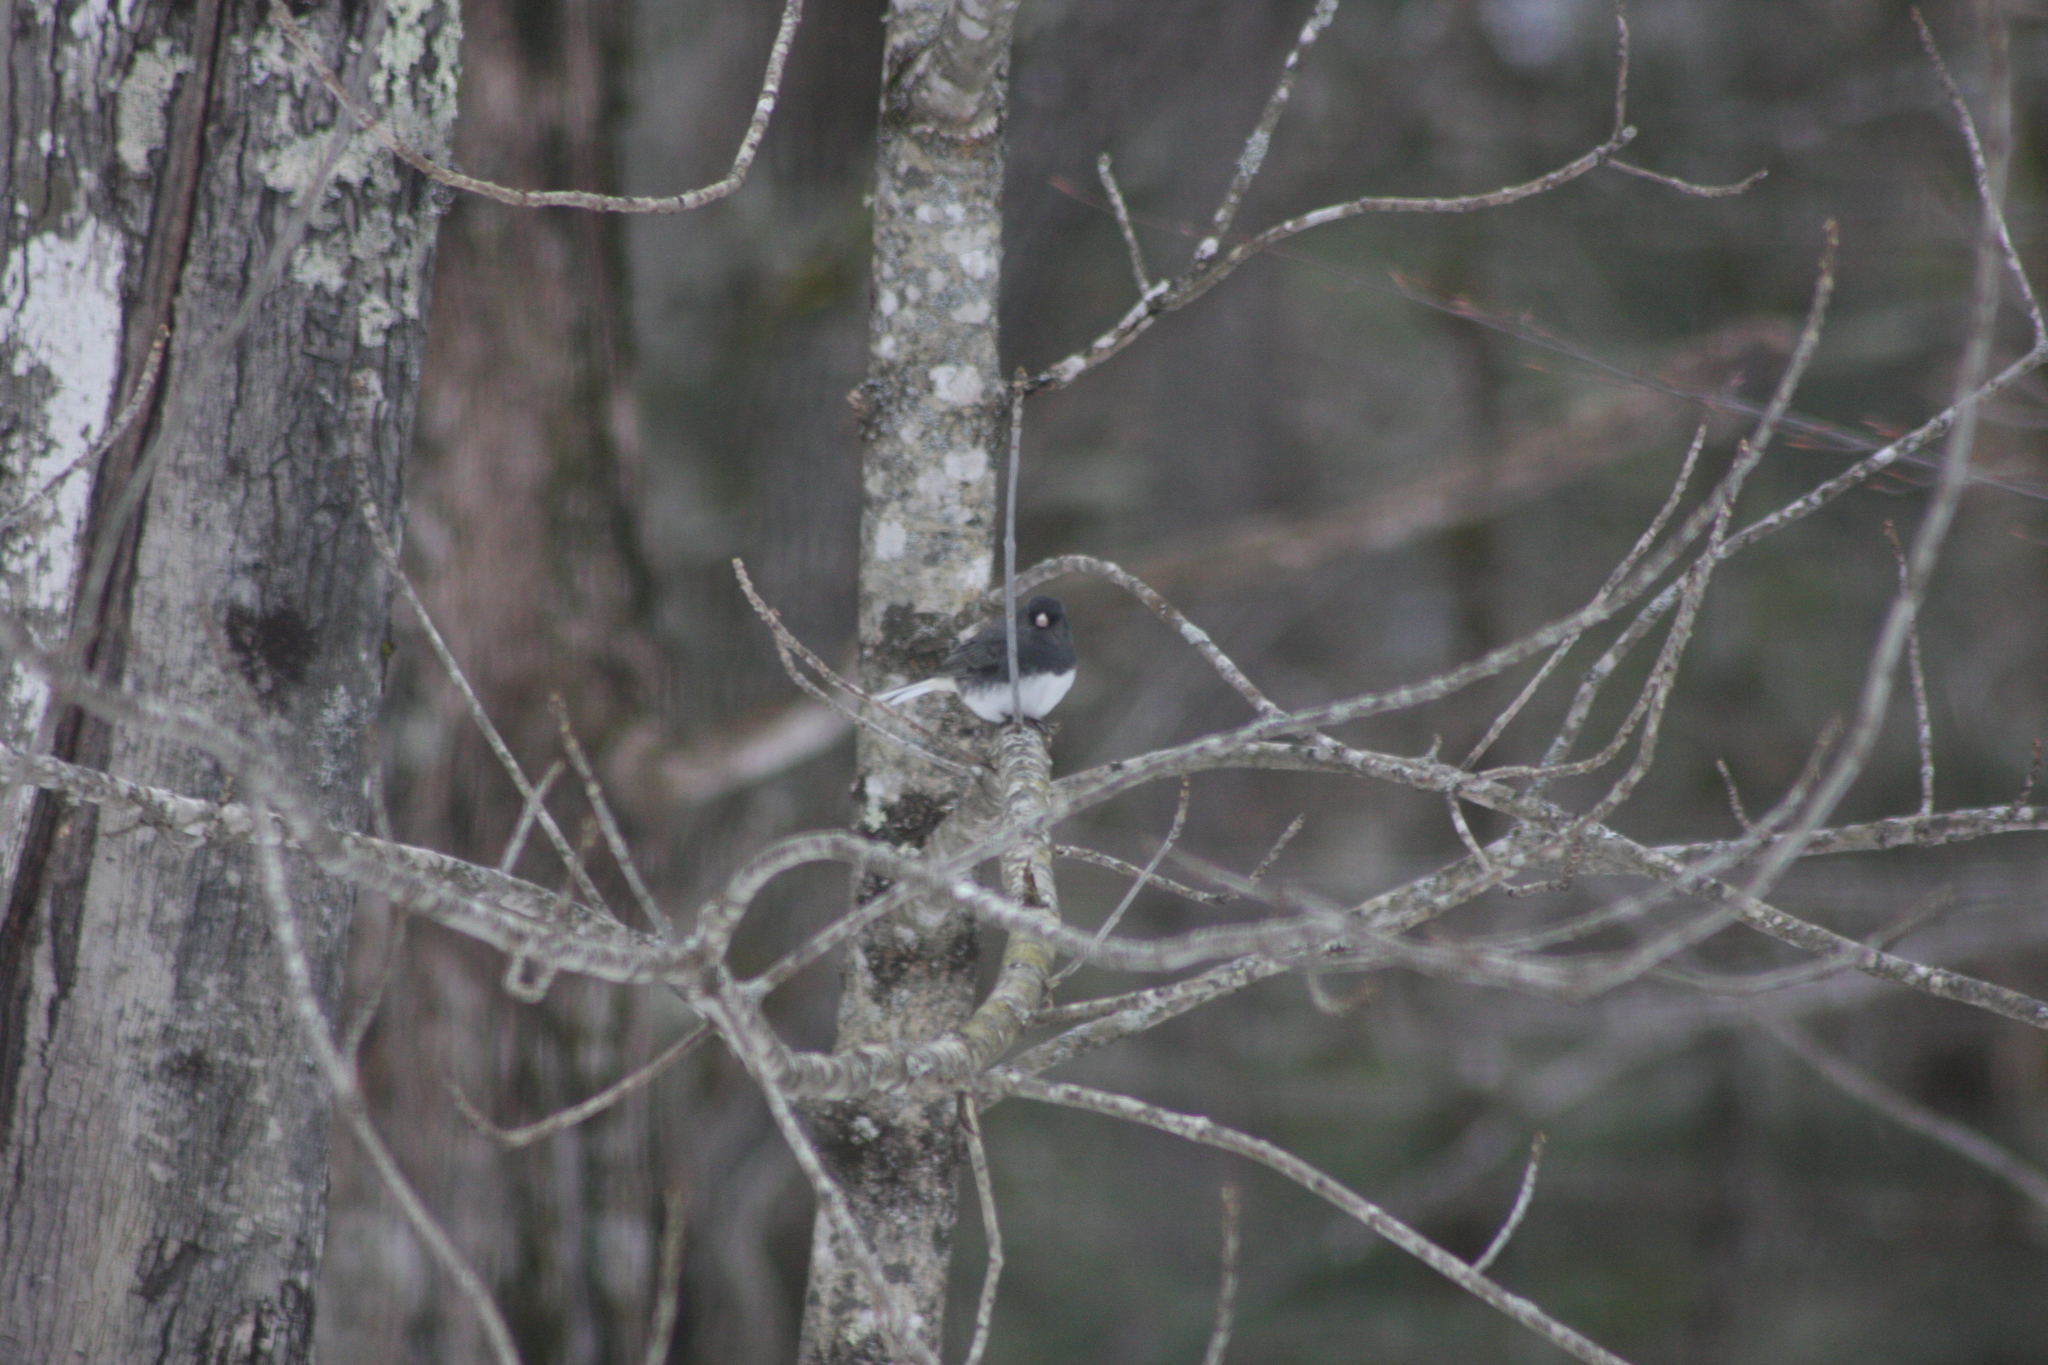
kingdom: Animalia
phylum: Chordata
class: Aves
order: Passeriformes
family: Passerellidae
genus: Junco
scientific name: Junco hyemalis
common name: Dark-eyed junco
